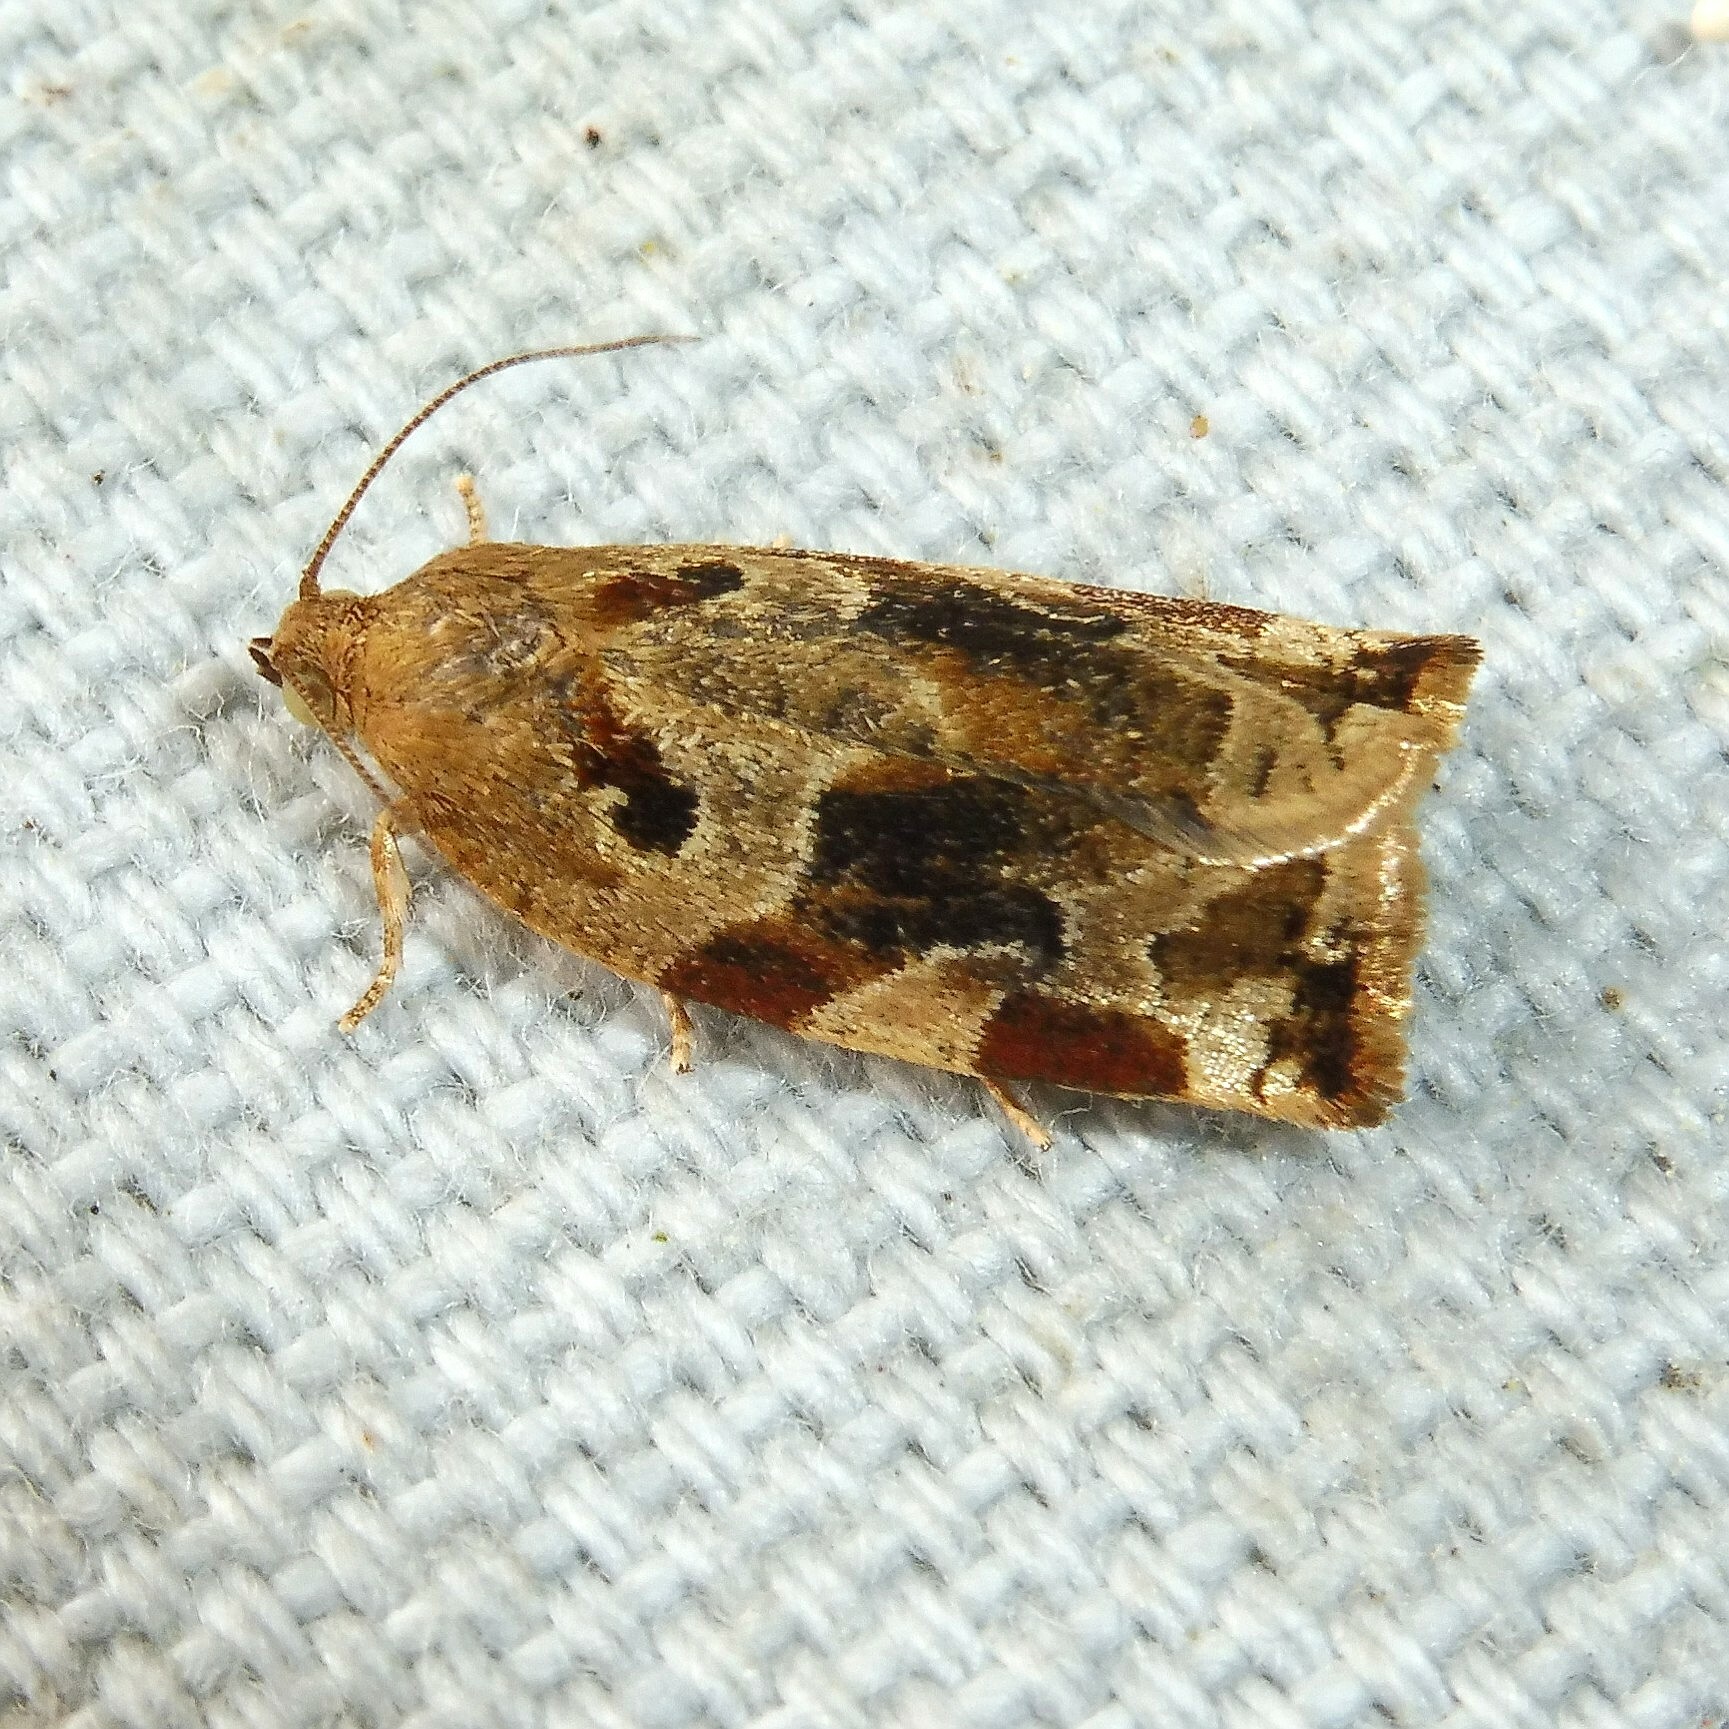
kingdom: Animalia
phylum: Arthropoda
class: Insecta
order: Lepidoptera
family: Tortricidae
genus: Archips
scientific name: Archips xylosteana
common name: Variegated golden tortrix
